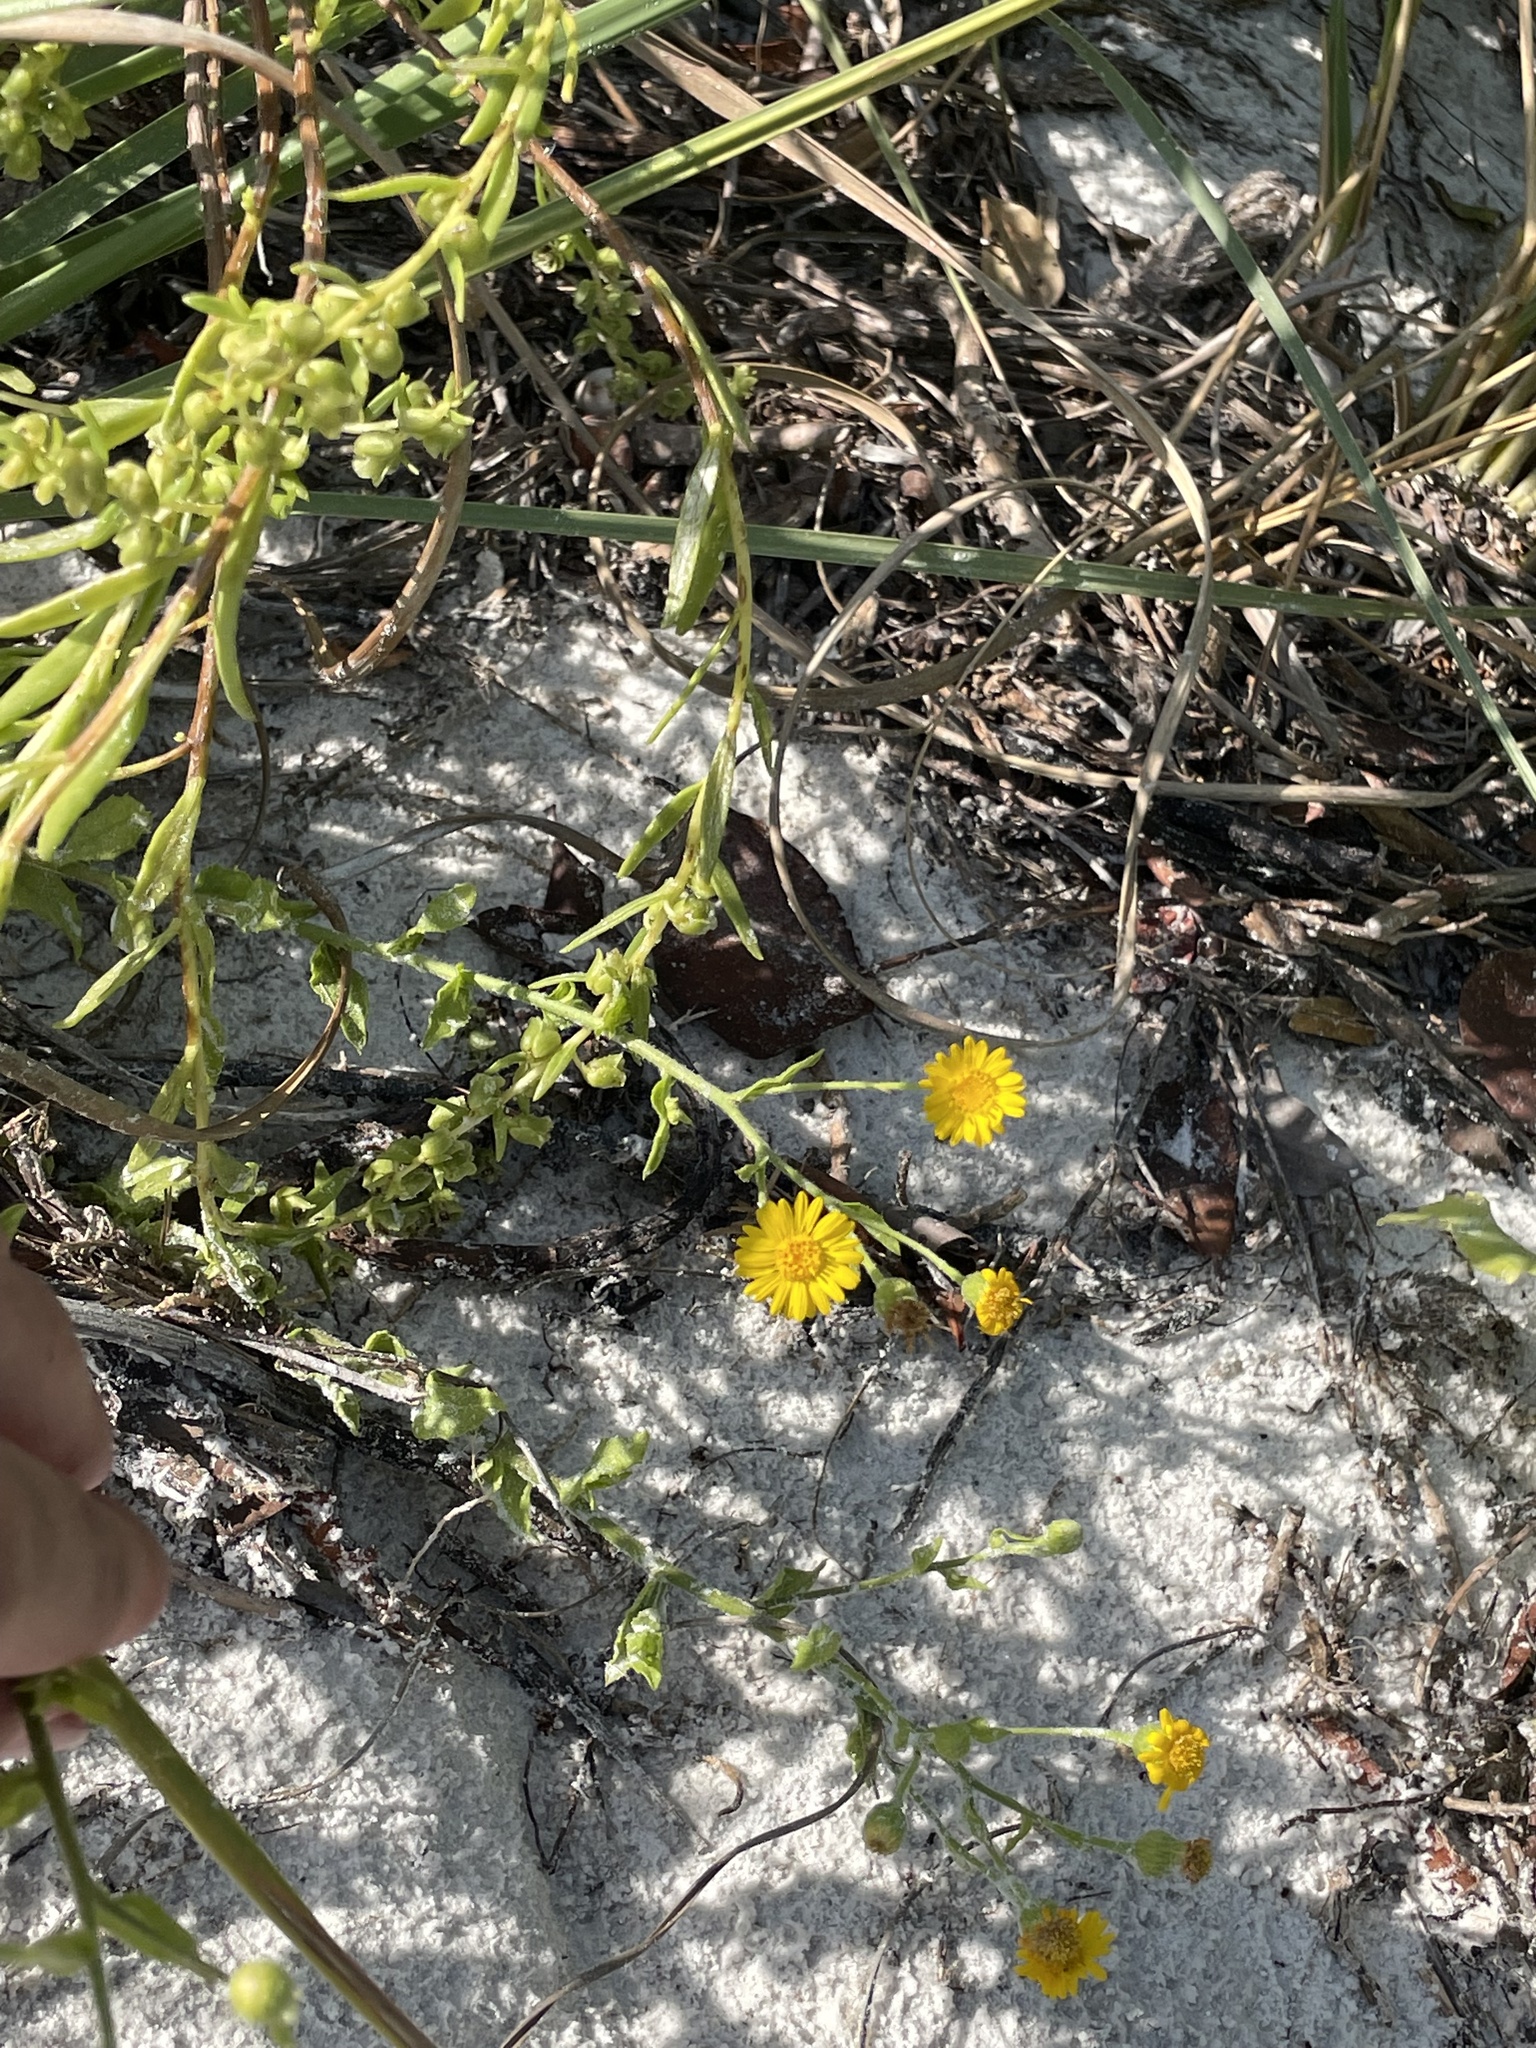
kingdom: Plantae
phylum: Tracheophyta
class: Magnoliopsida
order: Asterales
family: Asteraceae
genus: Heterotheca
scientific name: Heterotheca subaxillaris
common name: Camphorweed
